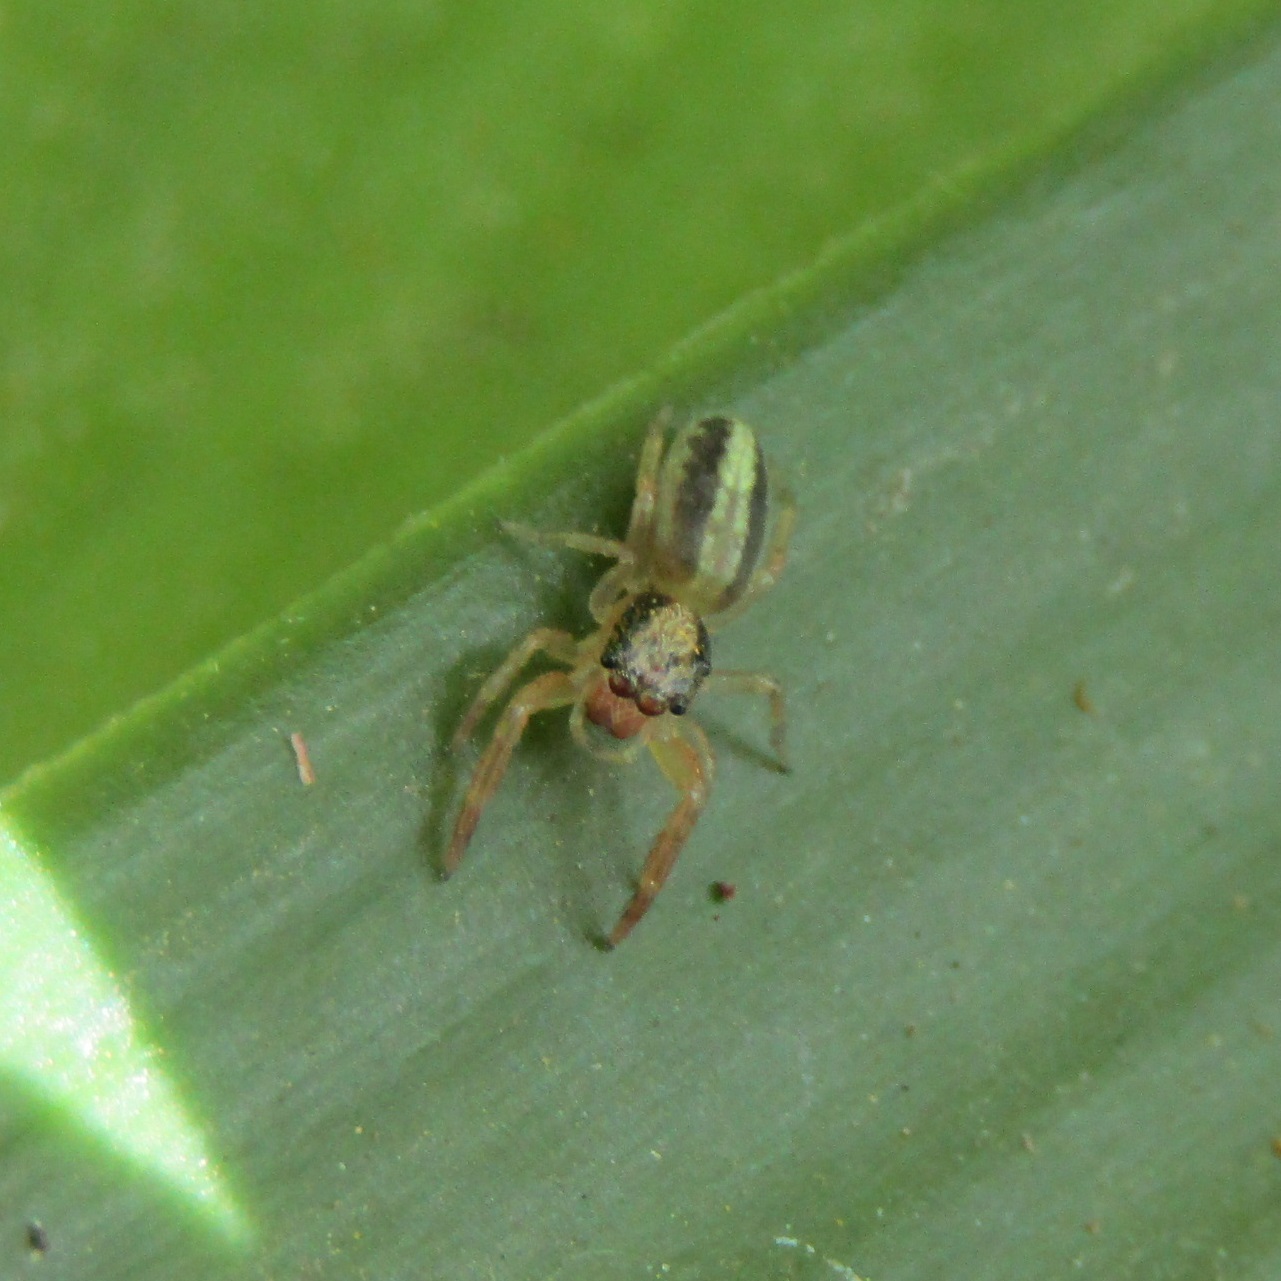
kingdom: Animalia
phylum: Arthropoda
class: Arachnida
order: Araneae
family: Salticidae
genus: Trite
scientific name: Trite planiceps
